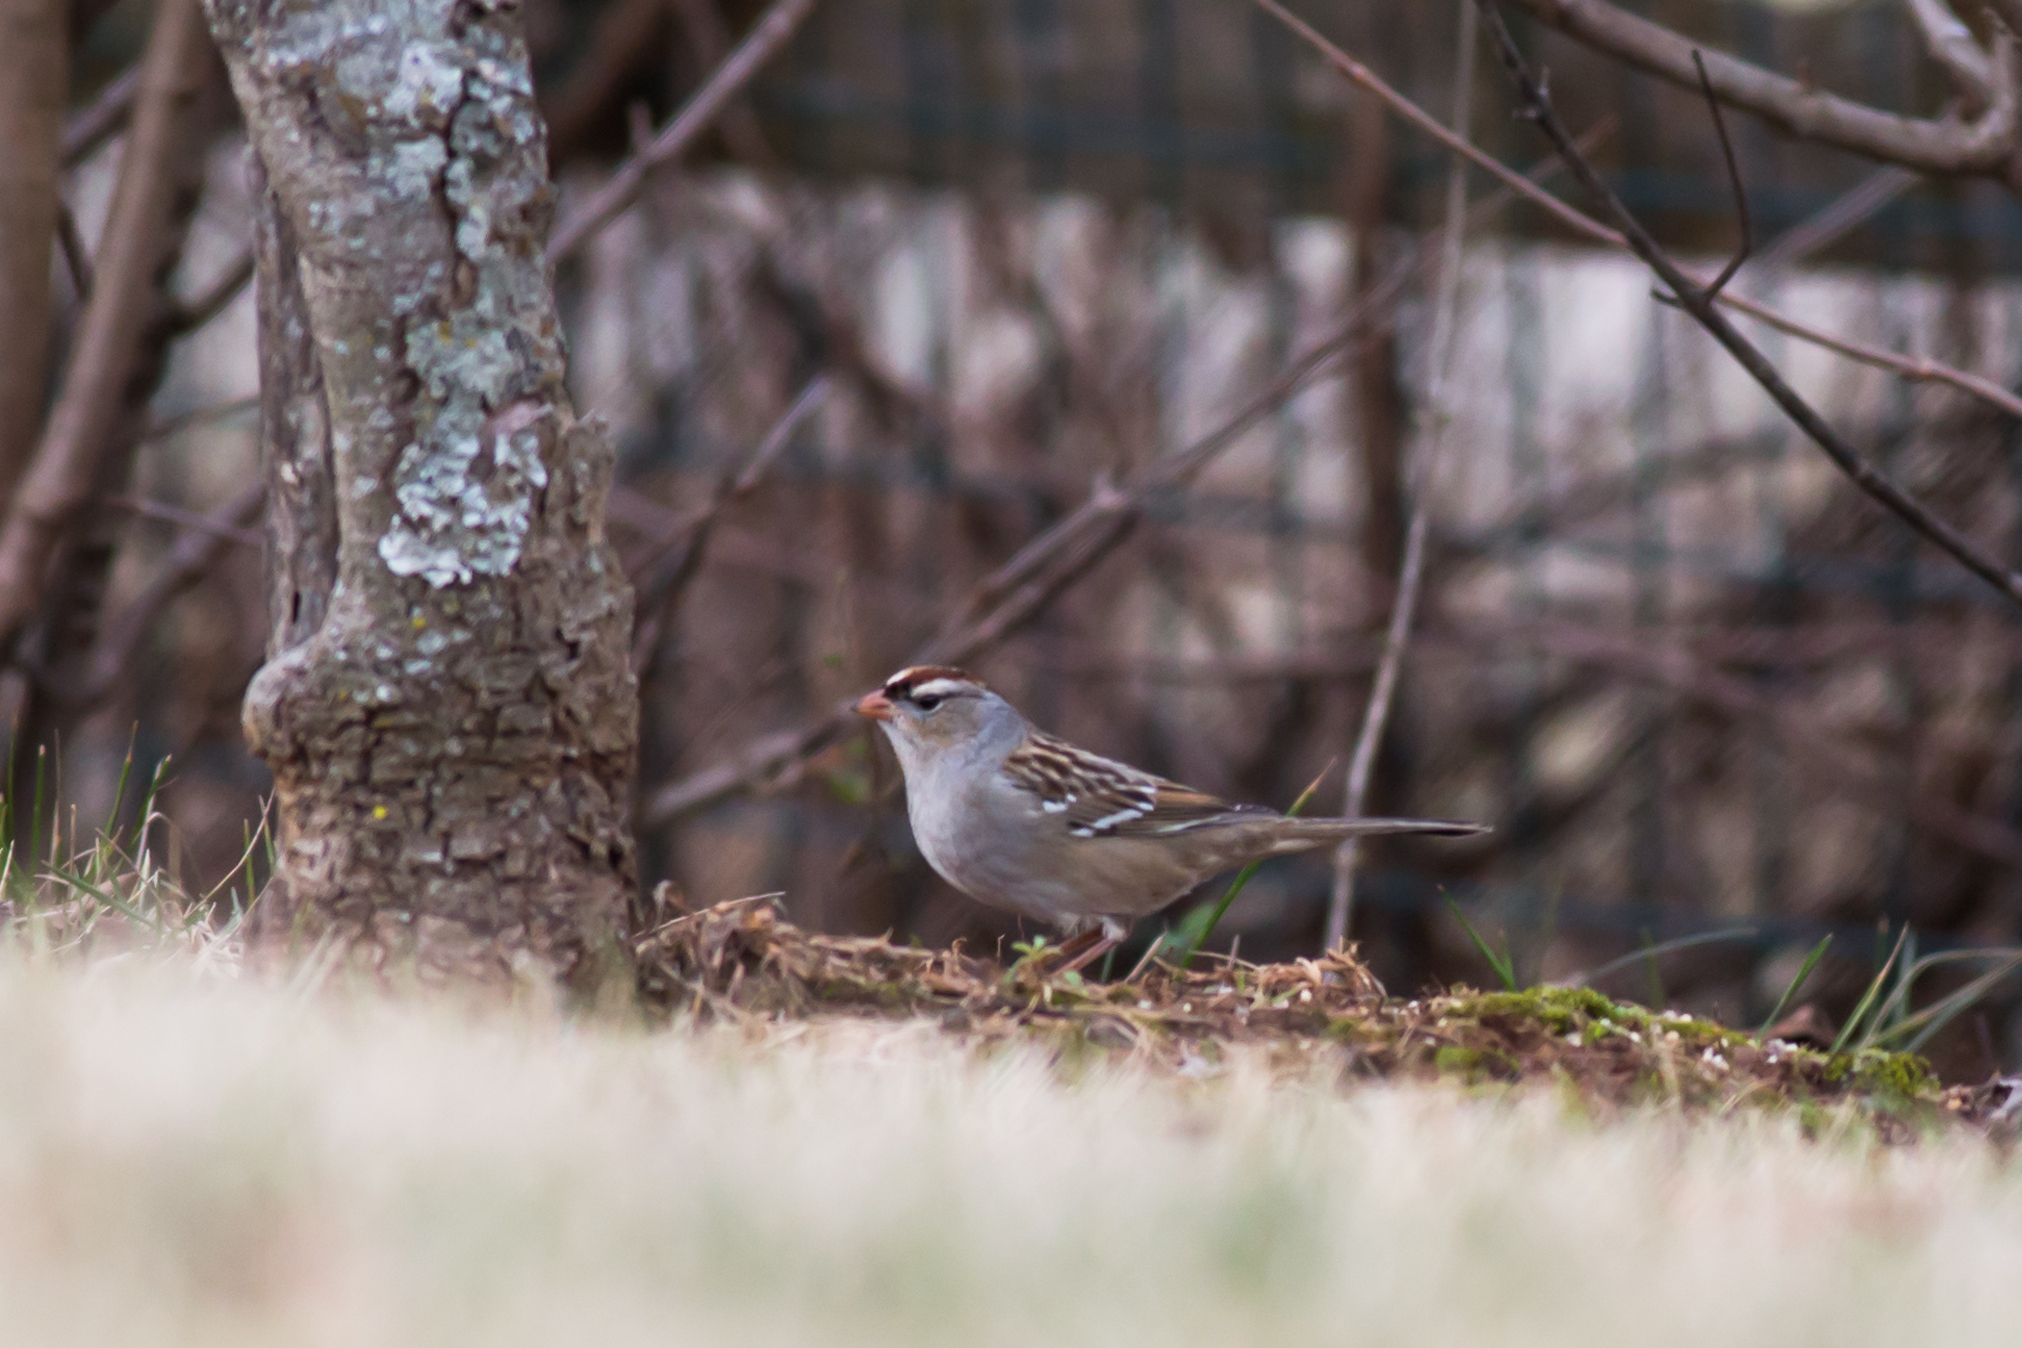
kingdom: Animalia
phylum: Chordata
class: Aves
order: Passeriformes
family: Passerellidae
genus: Zonotrichia
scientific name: Zonotrichia leucophrys
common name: White-crowned sparrow
